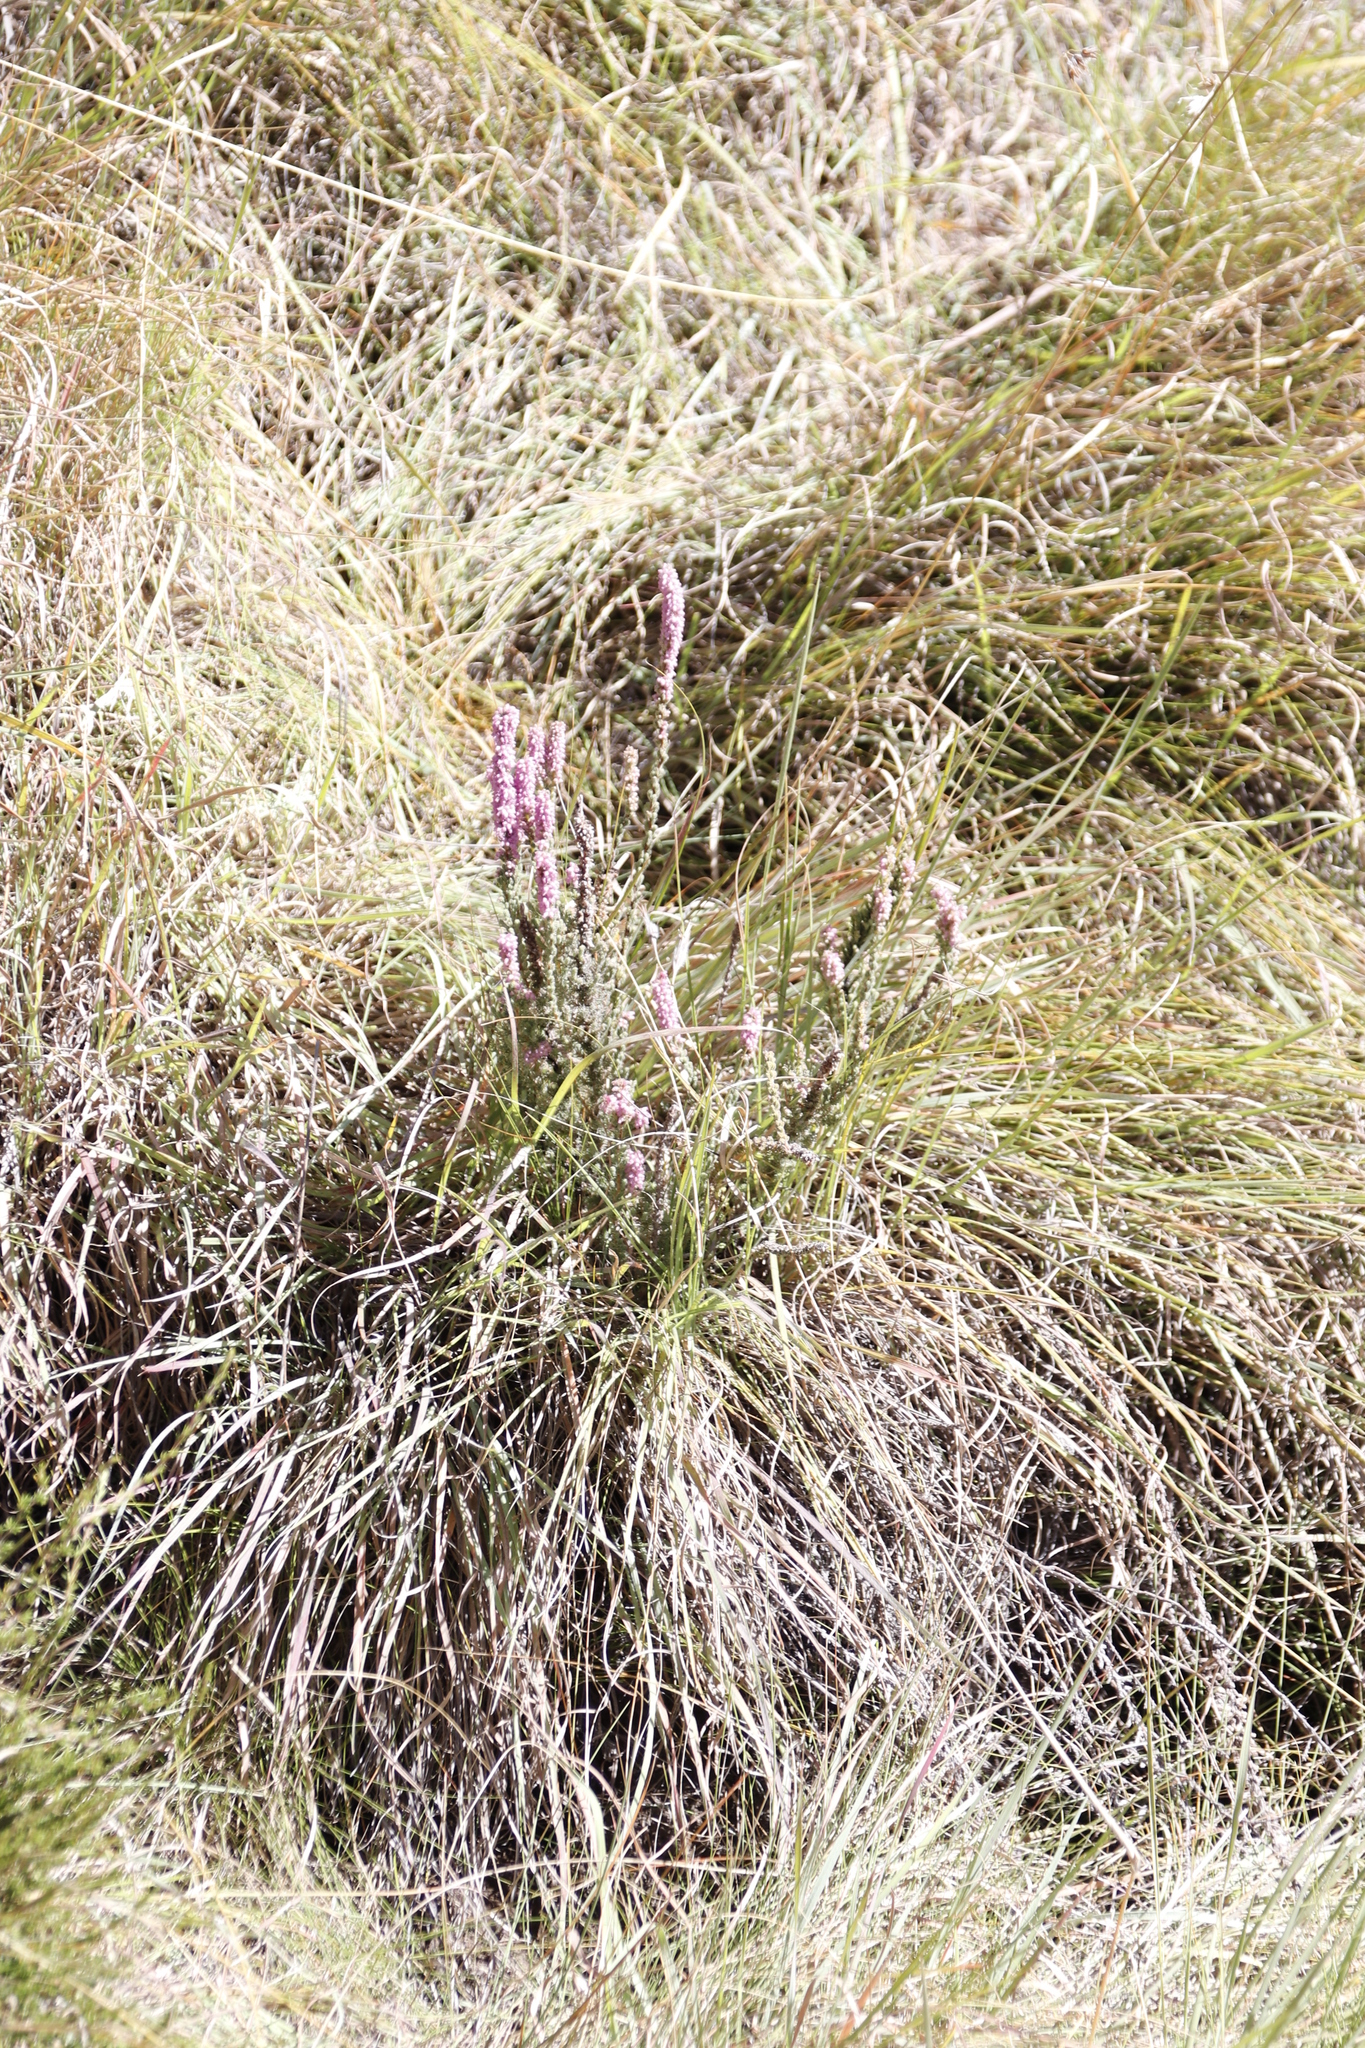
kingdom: Plantae
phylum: Tracheophyta
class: Magnoliopsida
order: Ericales
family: Ericaceae
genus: Erica
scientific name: Erica alopecurus
